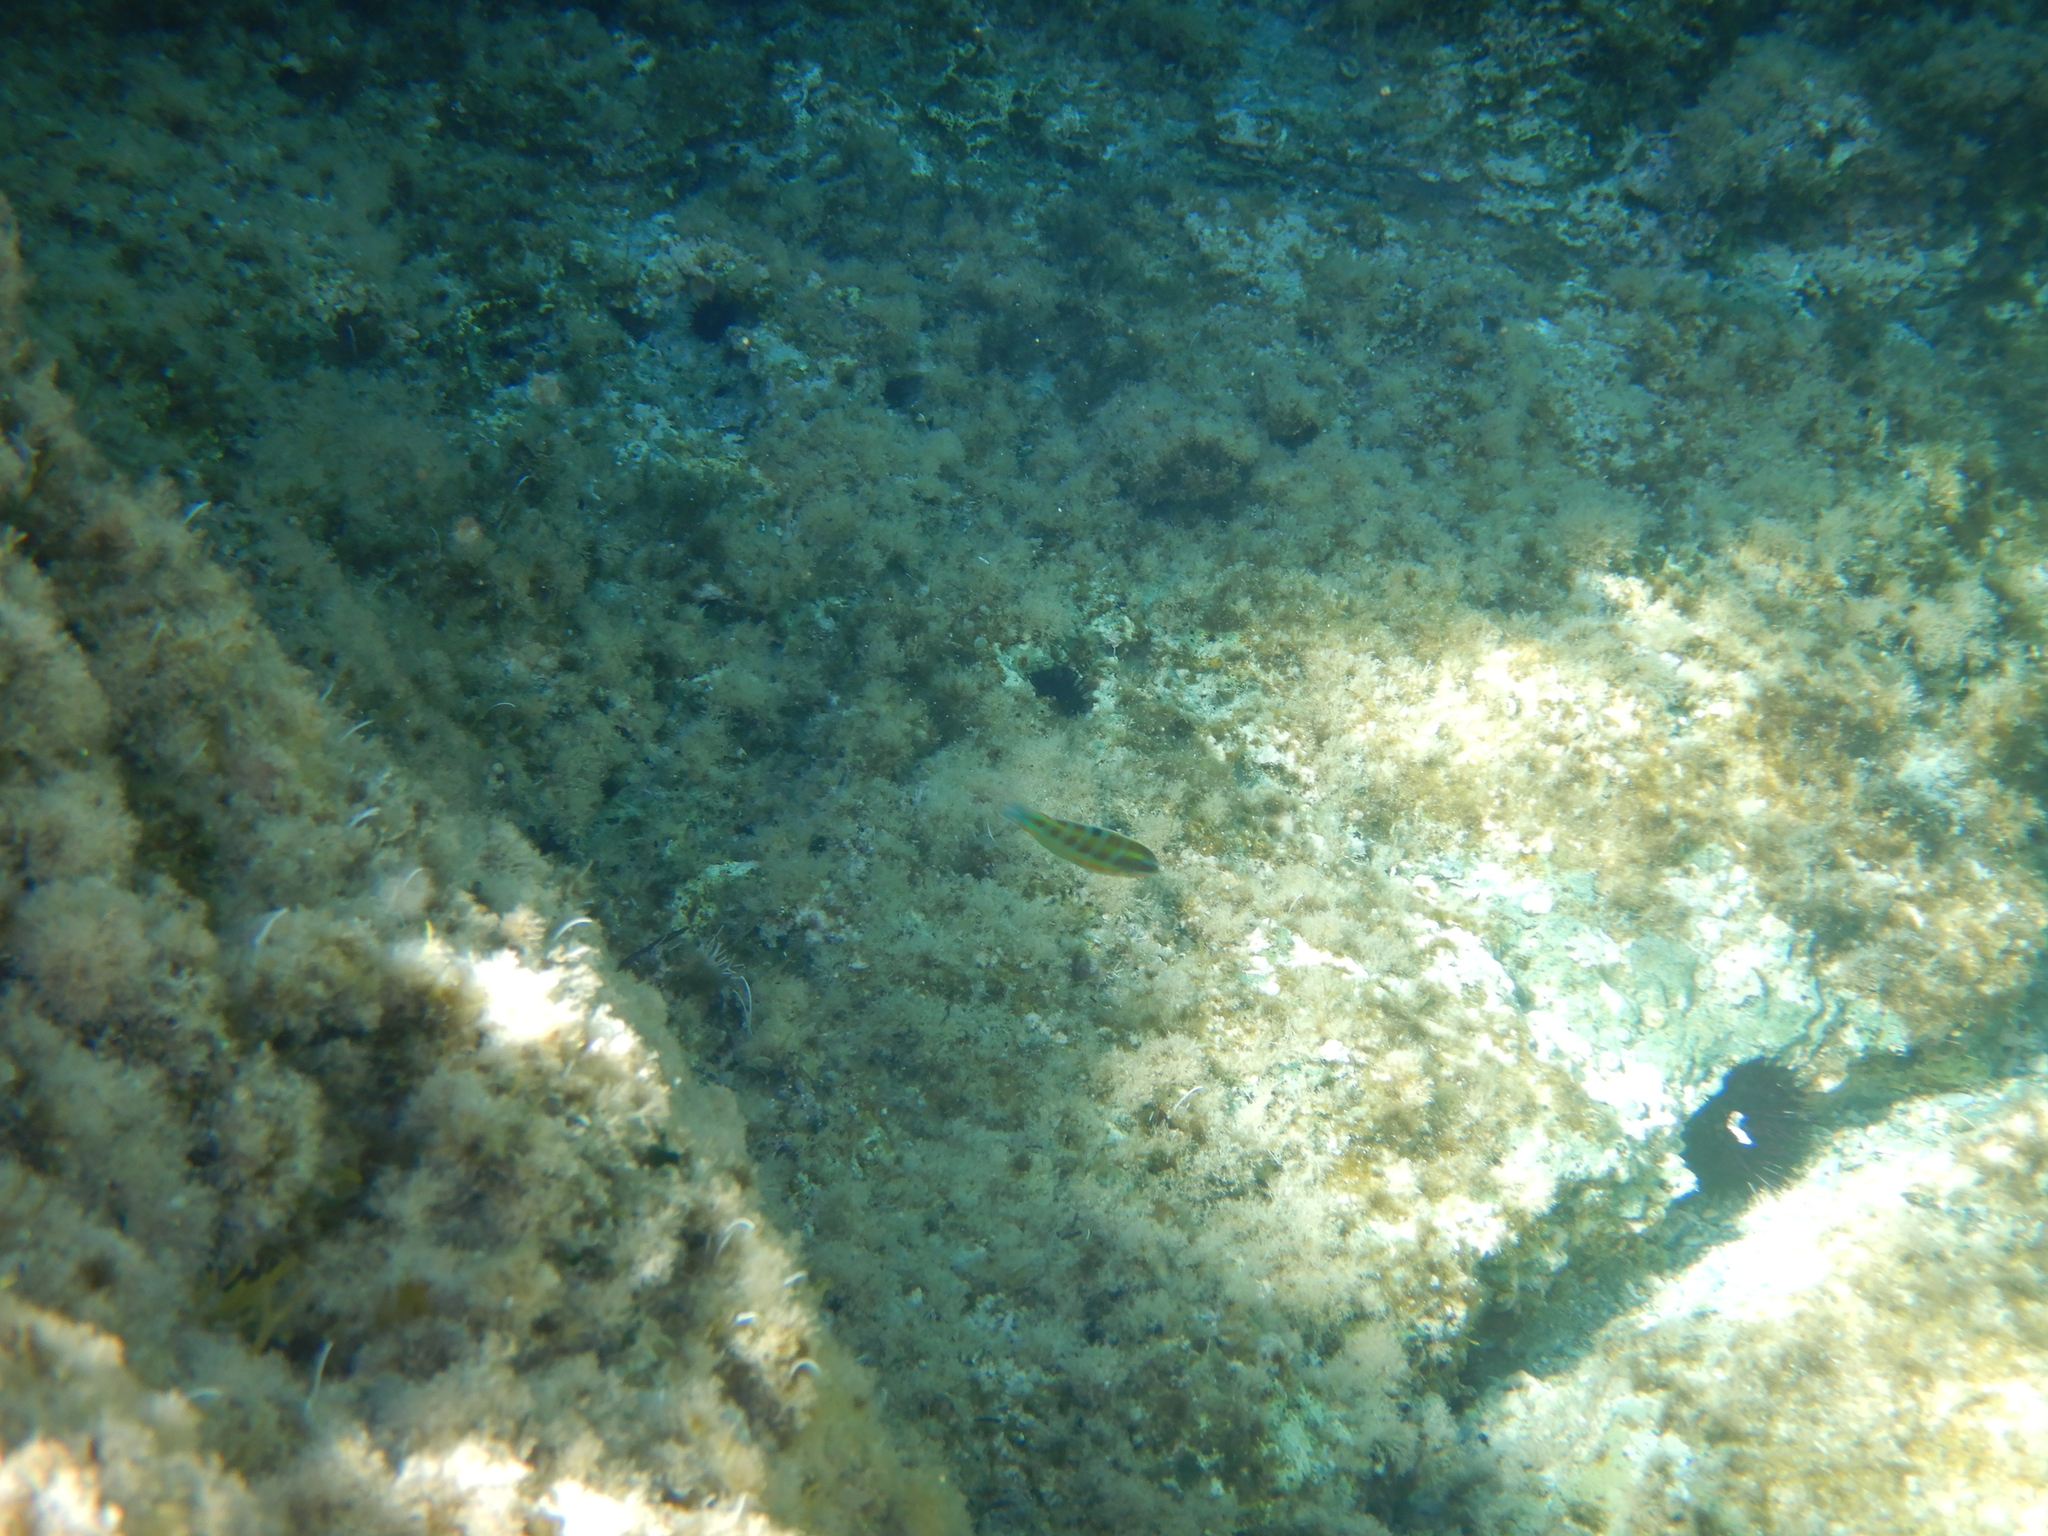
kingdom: Animalia
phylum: Chordata
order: Perciformes
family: Labridae
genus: Thalassoma
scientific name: Thalassoma pavo
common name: Ornate wrasse
